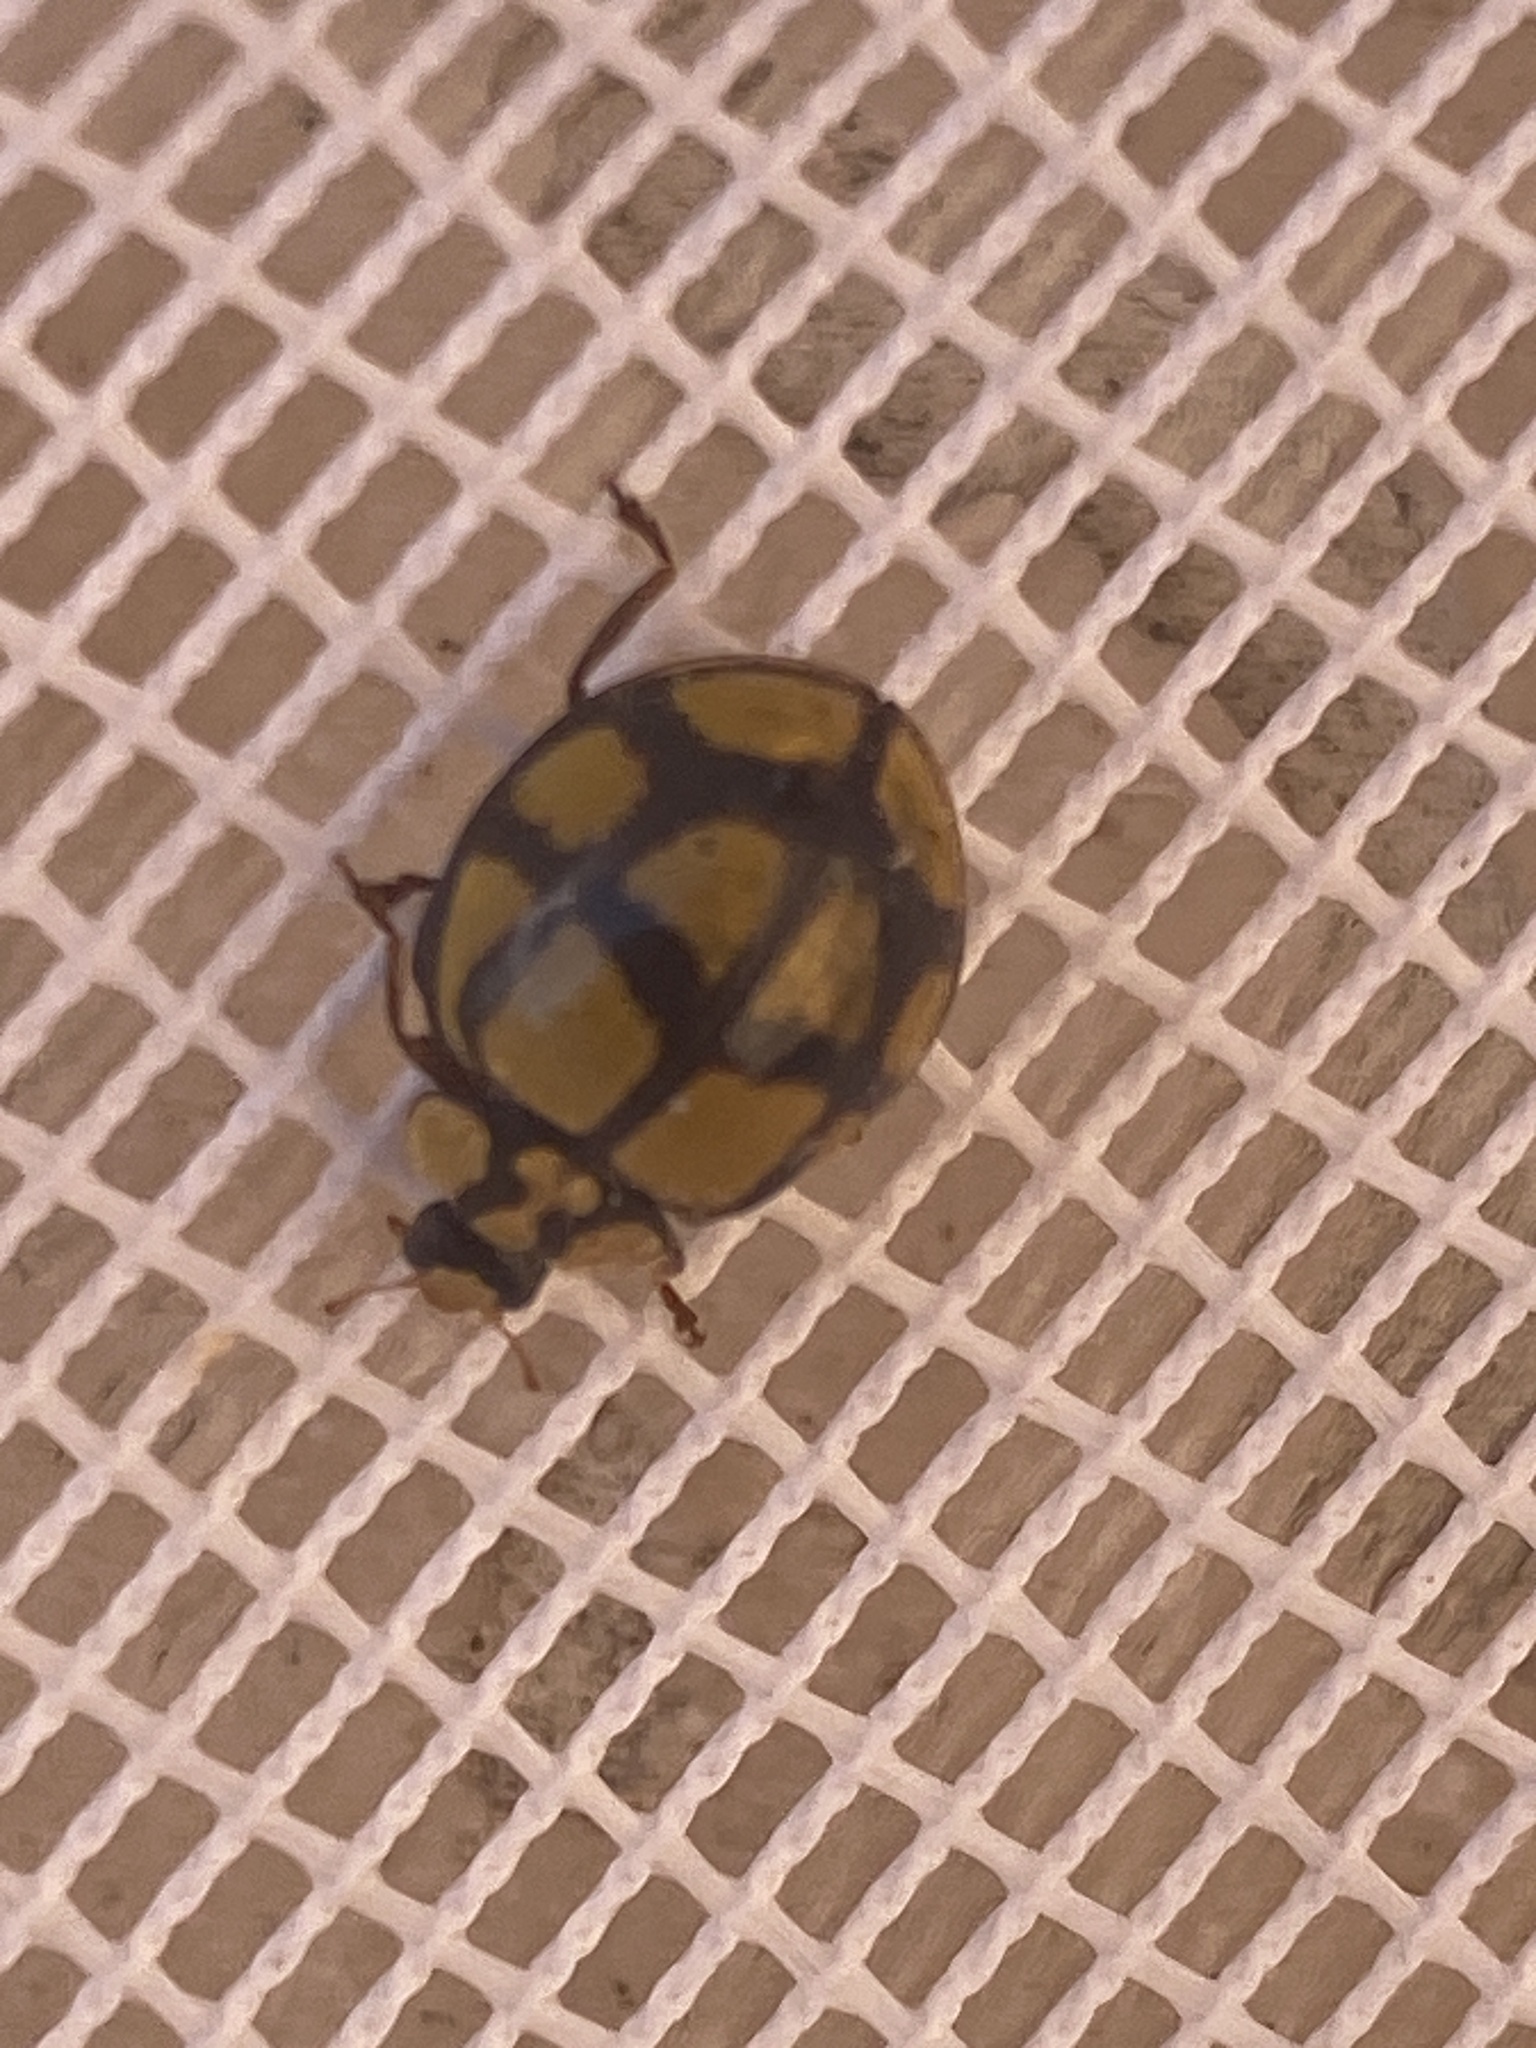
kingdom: Animalia
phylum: Arthropoda
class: Insecta
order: Coleoptera
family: Coccinellidae
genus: Harmonia
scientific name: Harmonia
